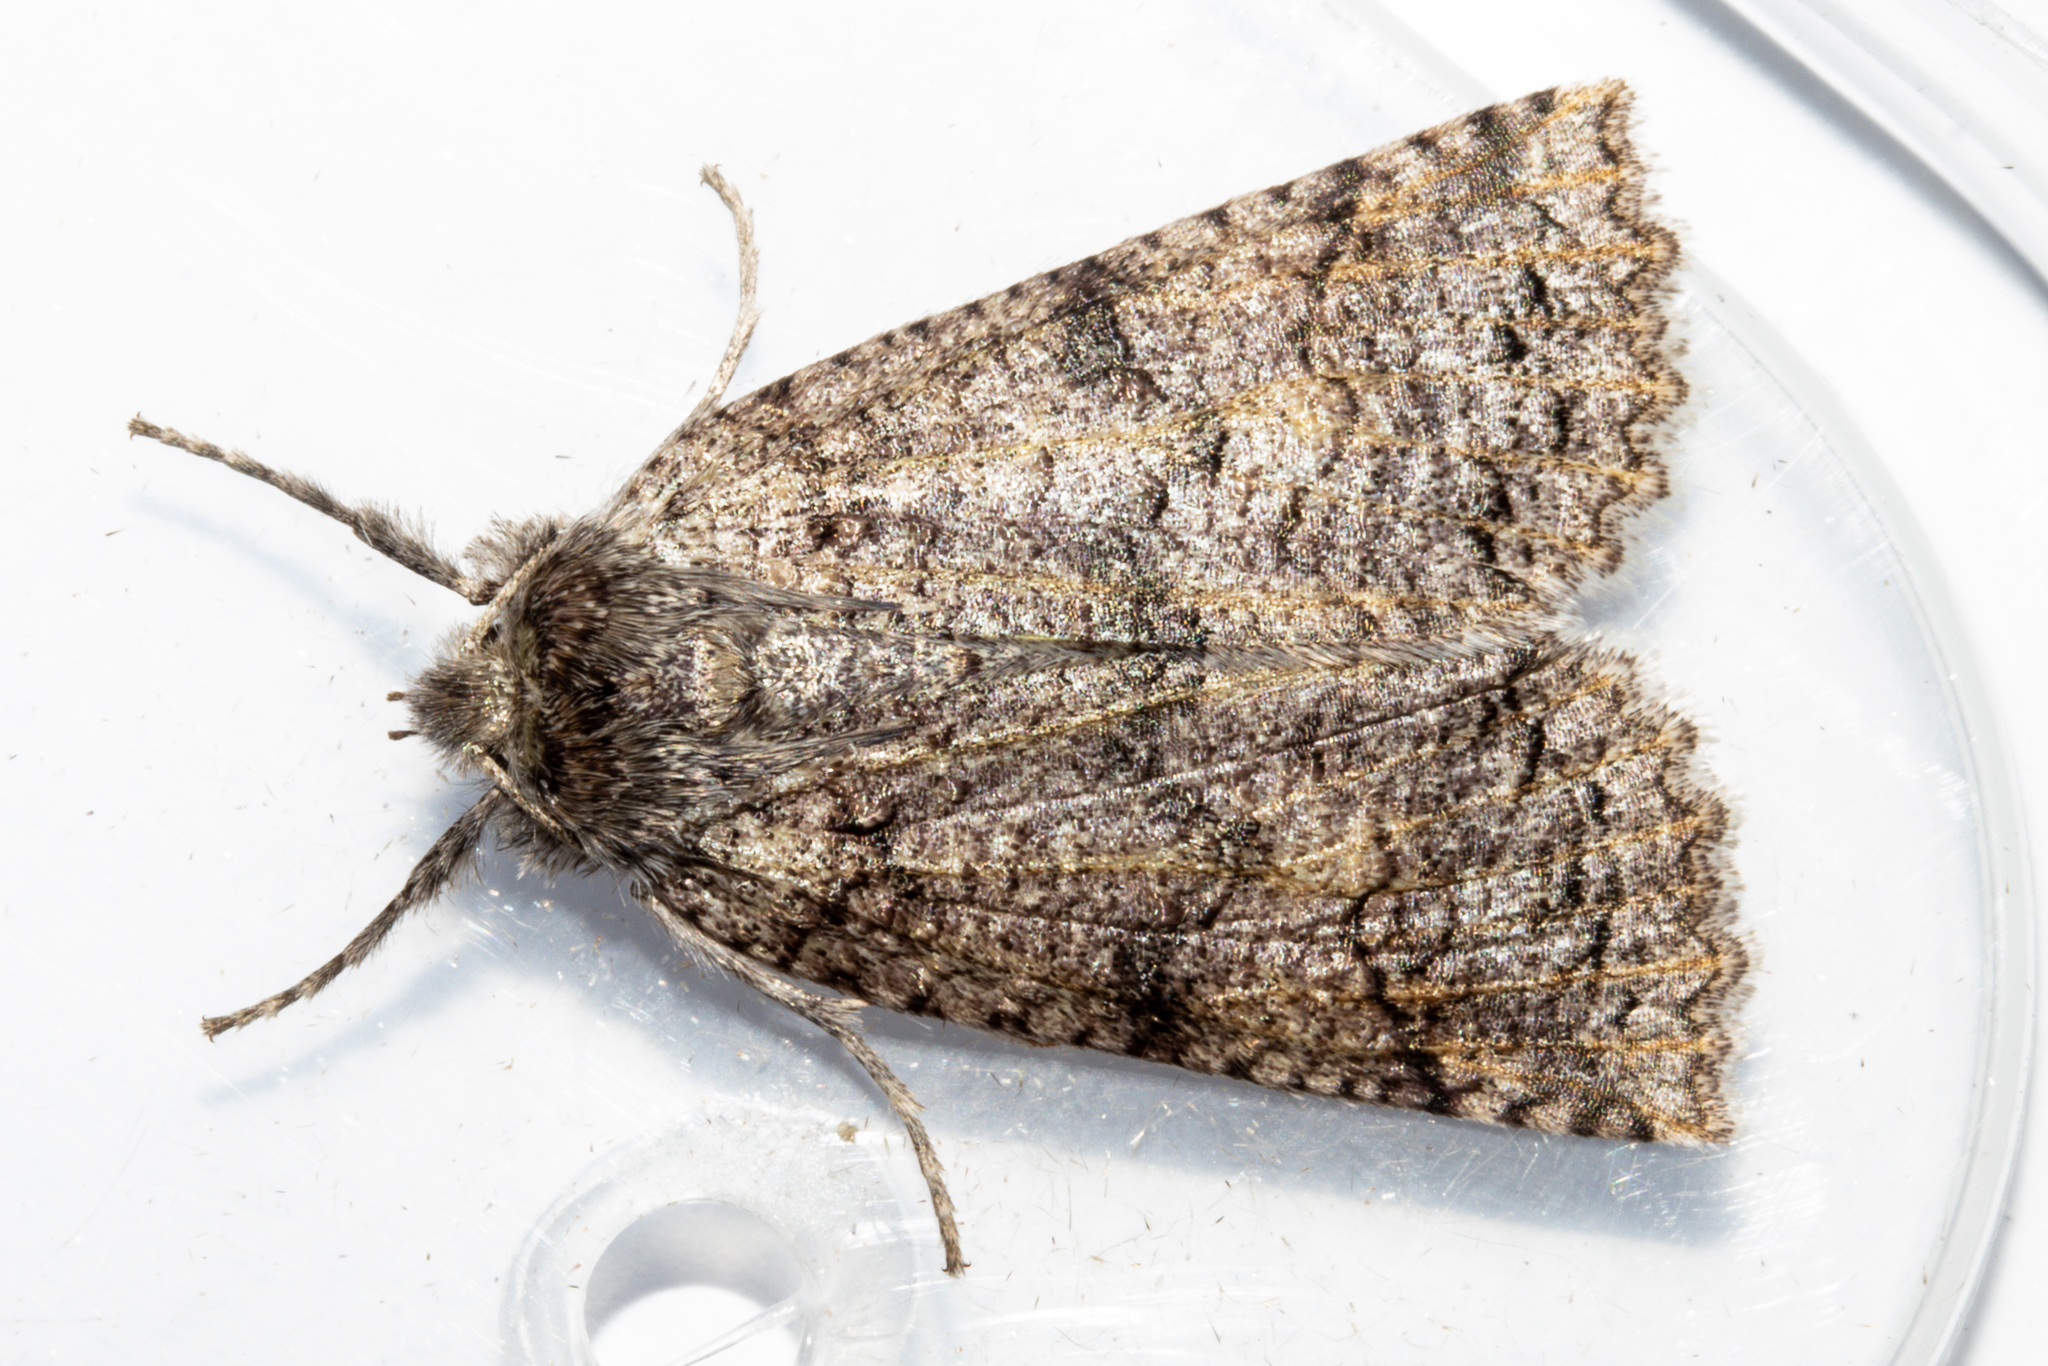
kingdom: Animalia
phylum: Arthropoda
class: Insecta
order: Lepidoptera
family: Geometridae
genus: Declana
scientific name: Declana floccosa
